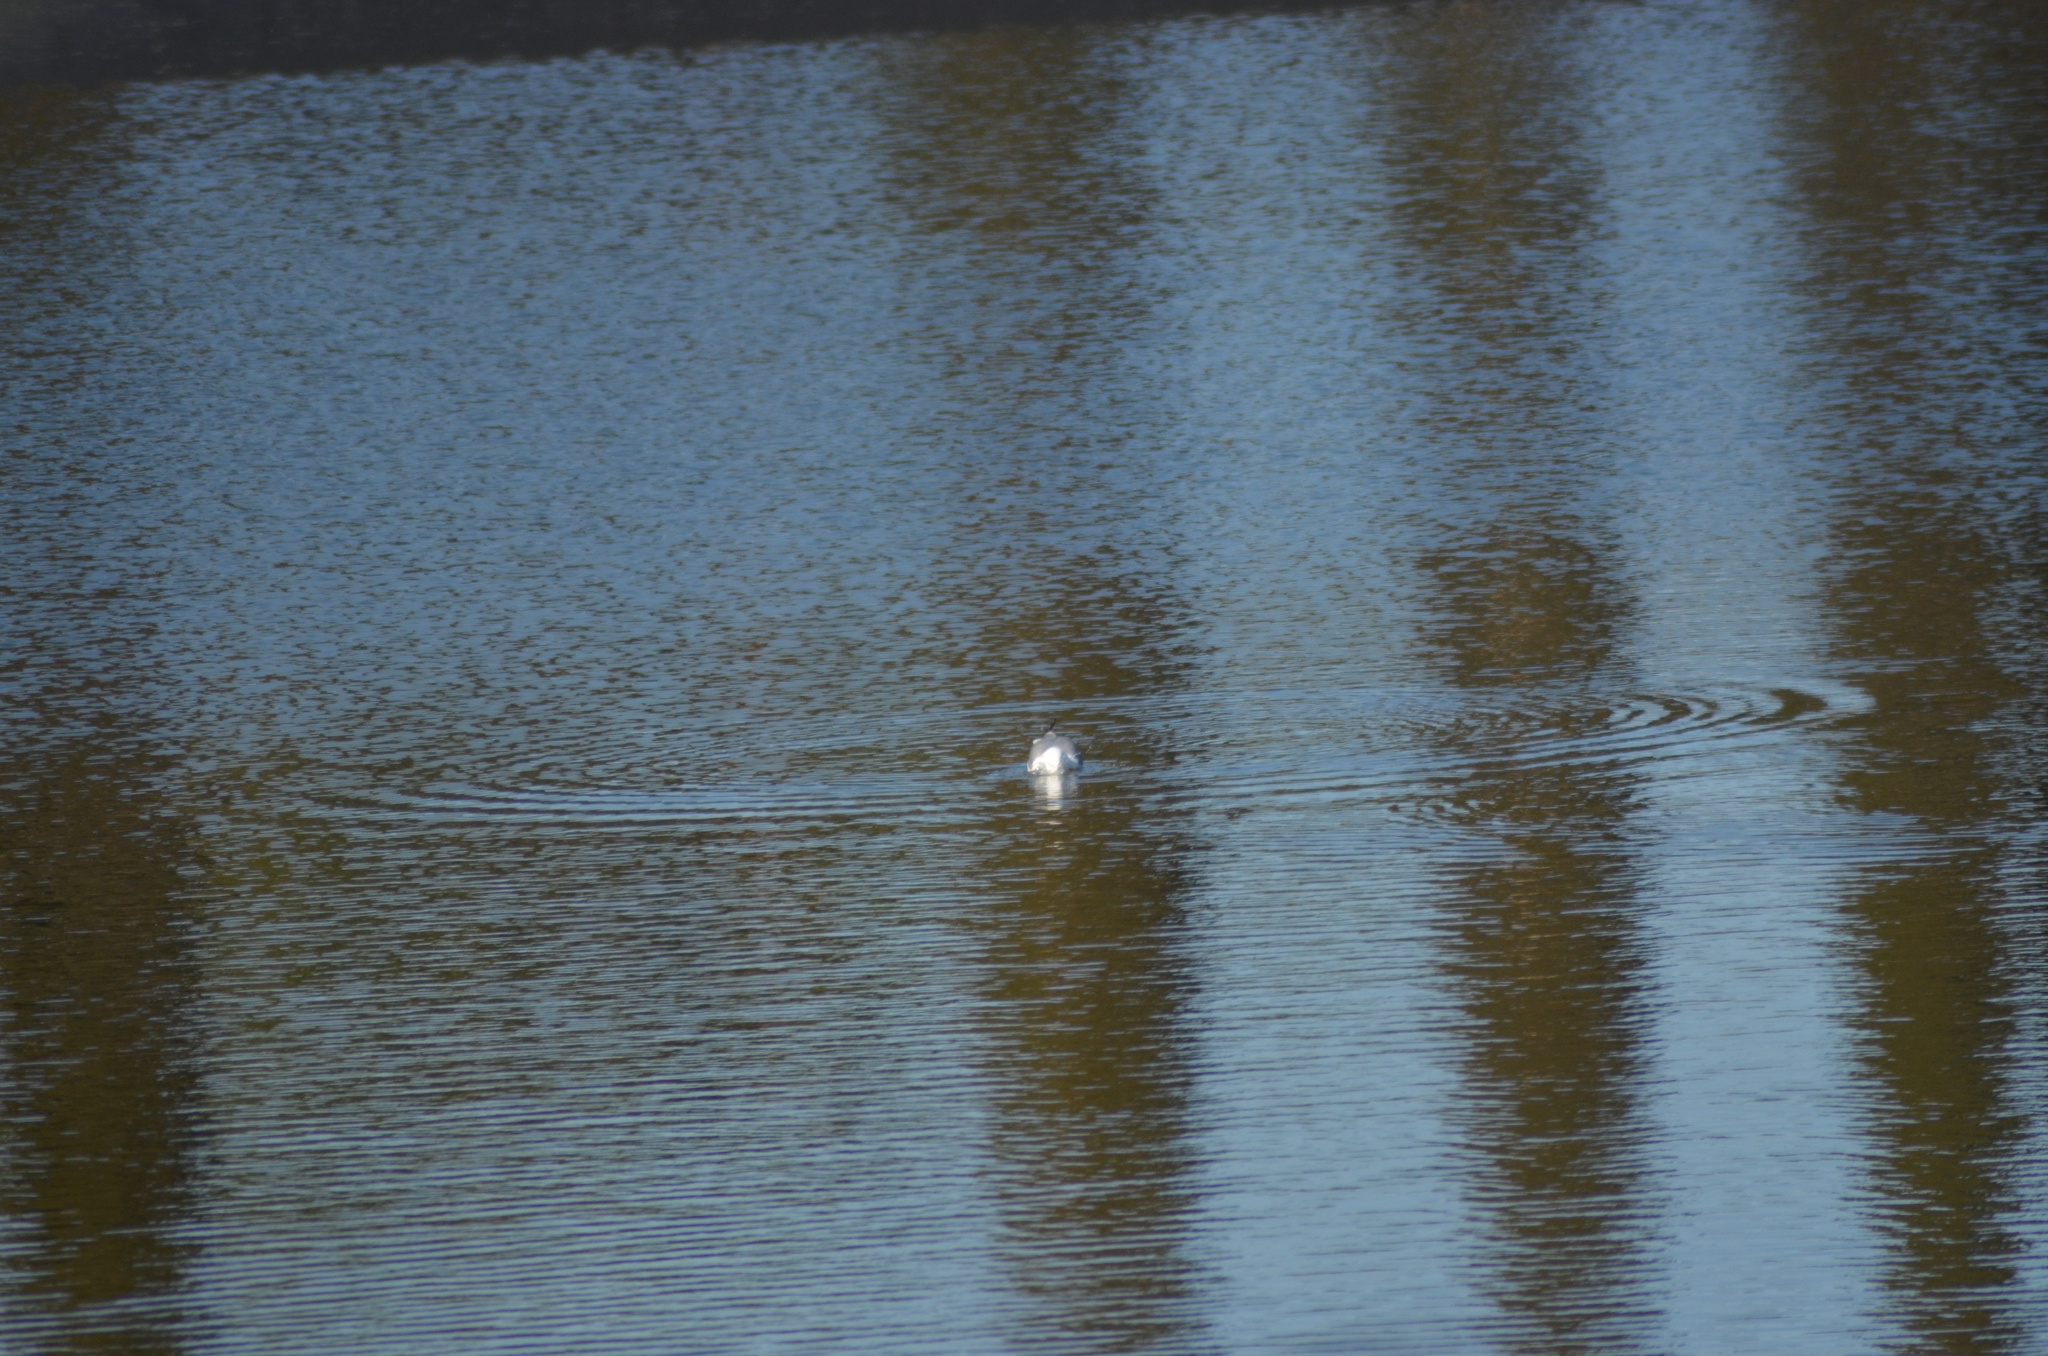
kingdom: Animalia
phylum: Chordata
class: Aves
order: Charadriiformes
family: Laridae
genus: Larus
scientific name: Larus michahellis
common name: Yellow-legged gull
